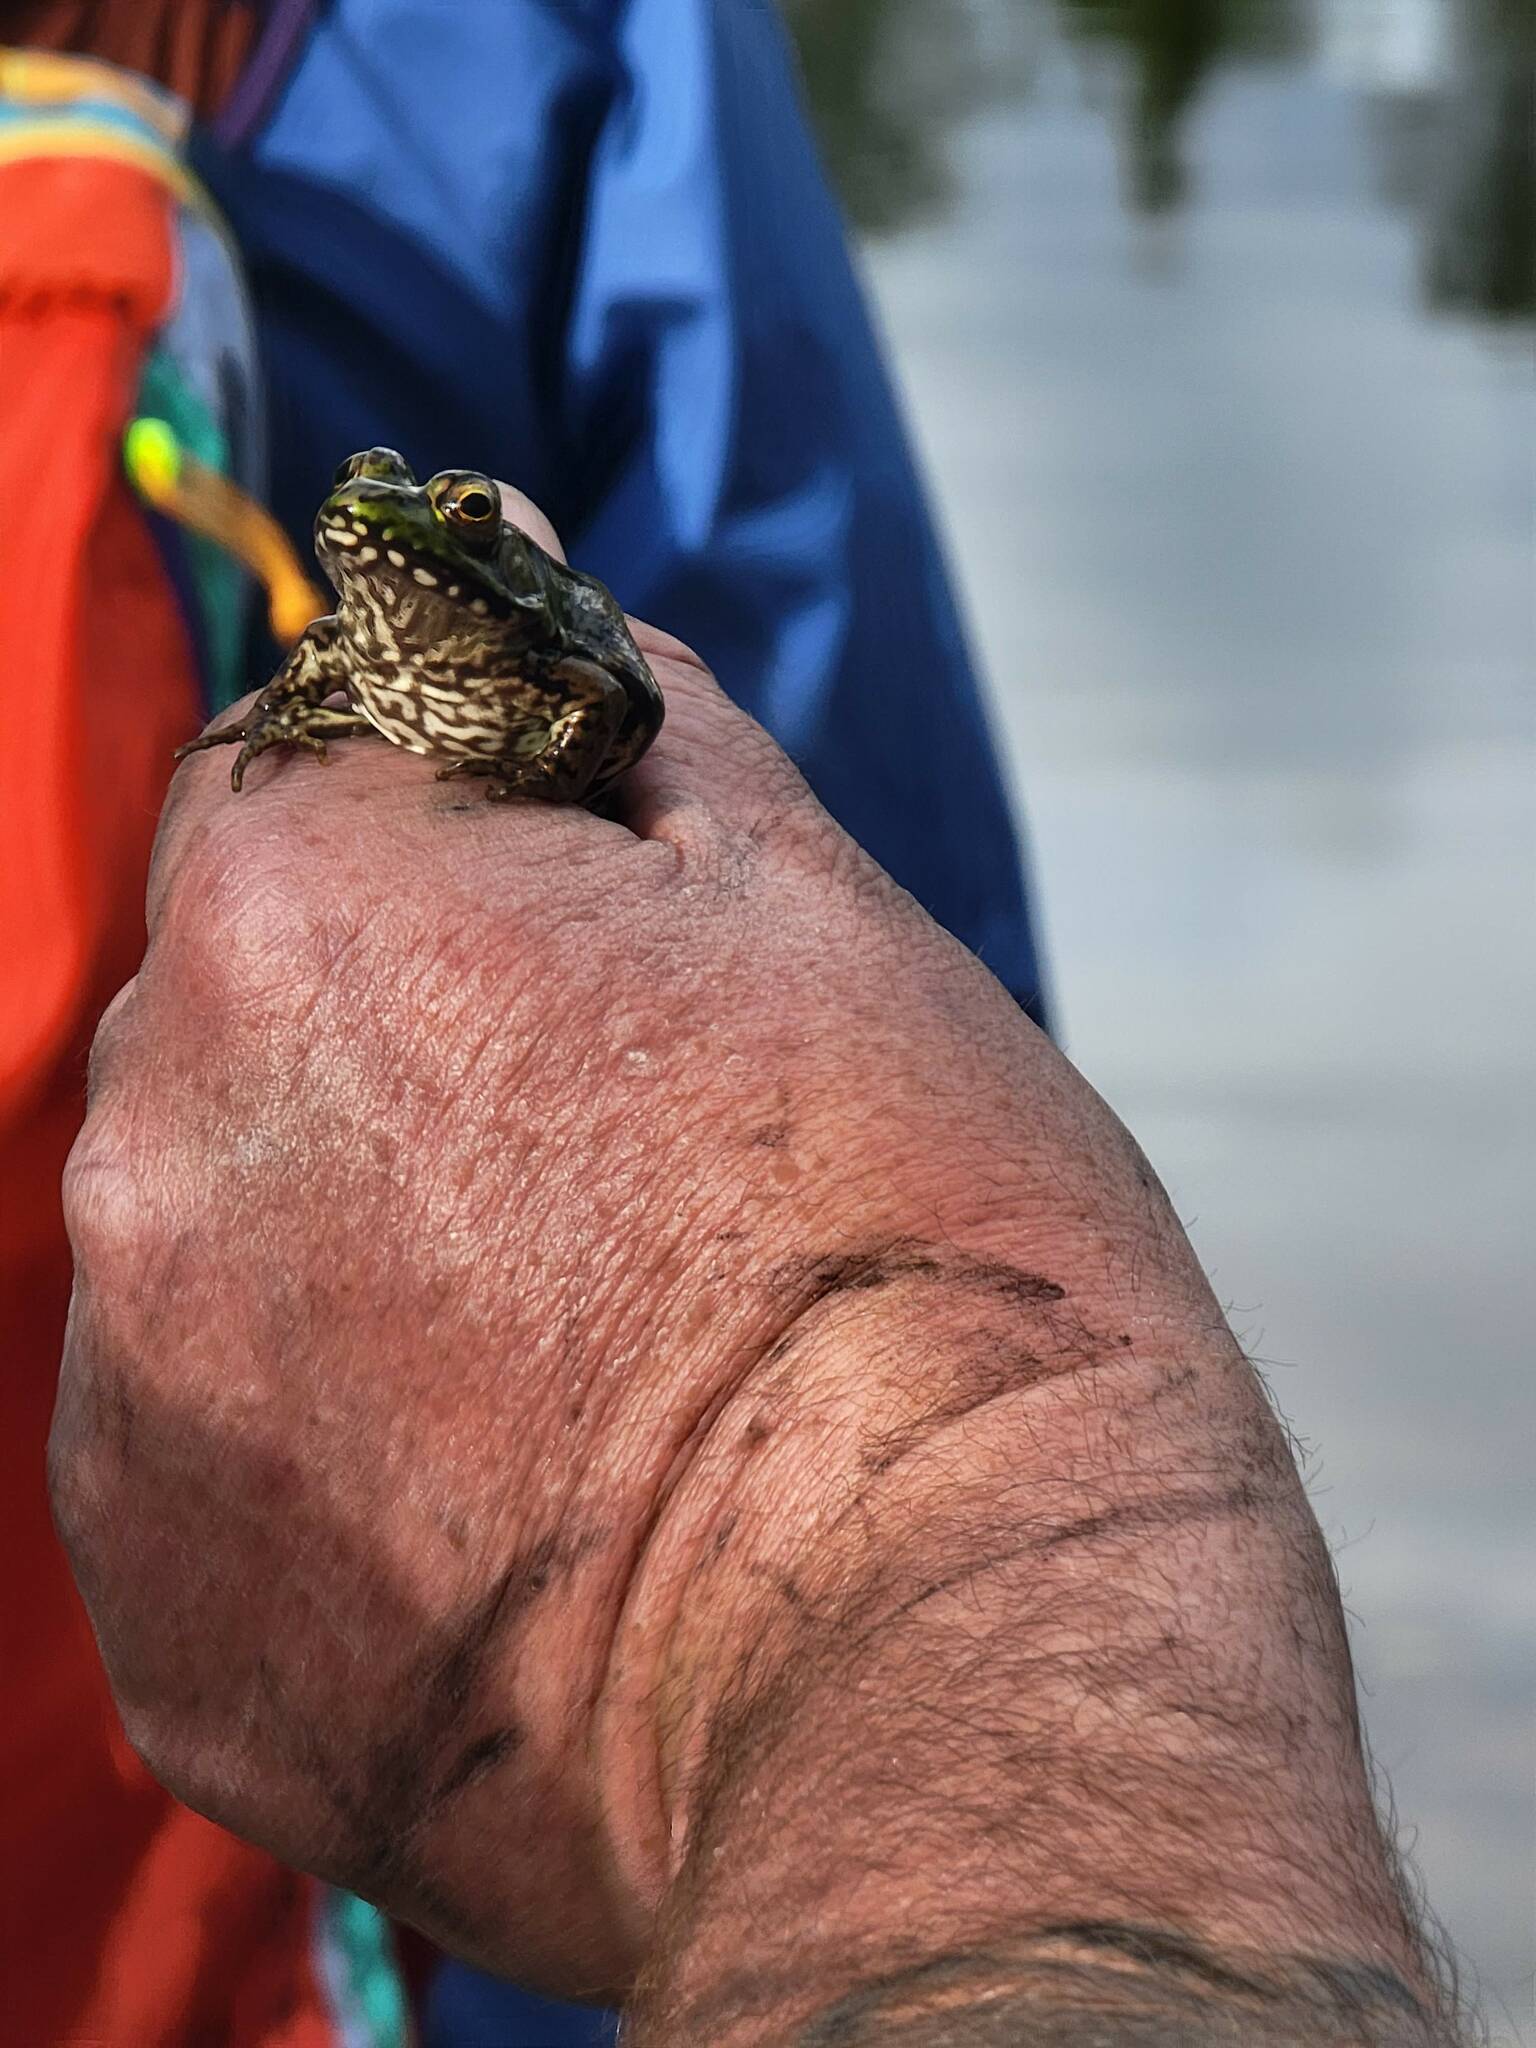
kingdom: Animalia
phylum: Chordata
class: Amphibia
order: Anura
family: Ranidae
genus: Lithobates
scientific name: Lithobates clamitans
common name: Green frog
